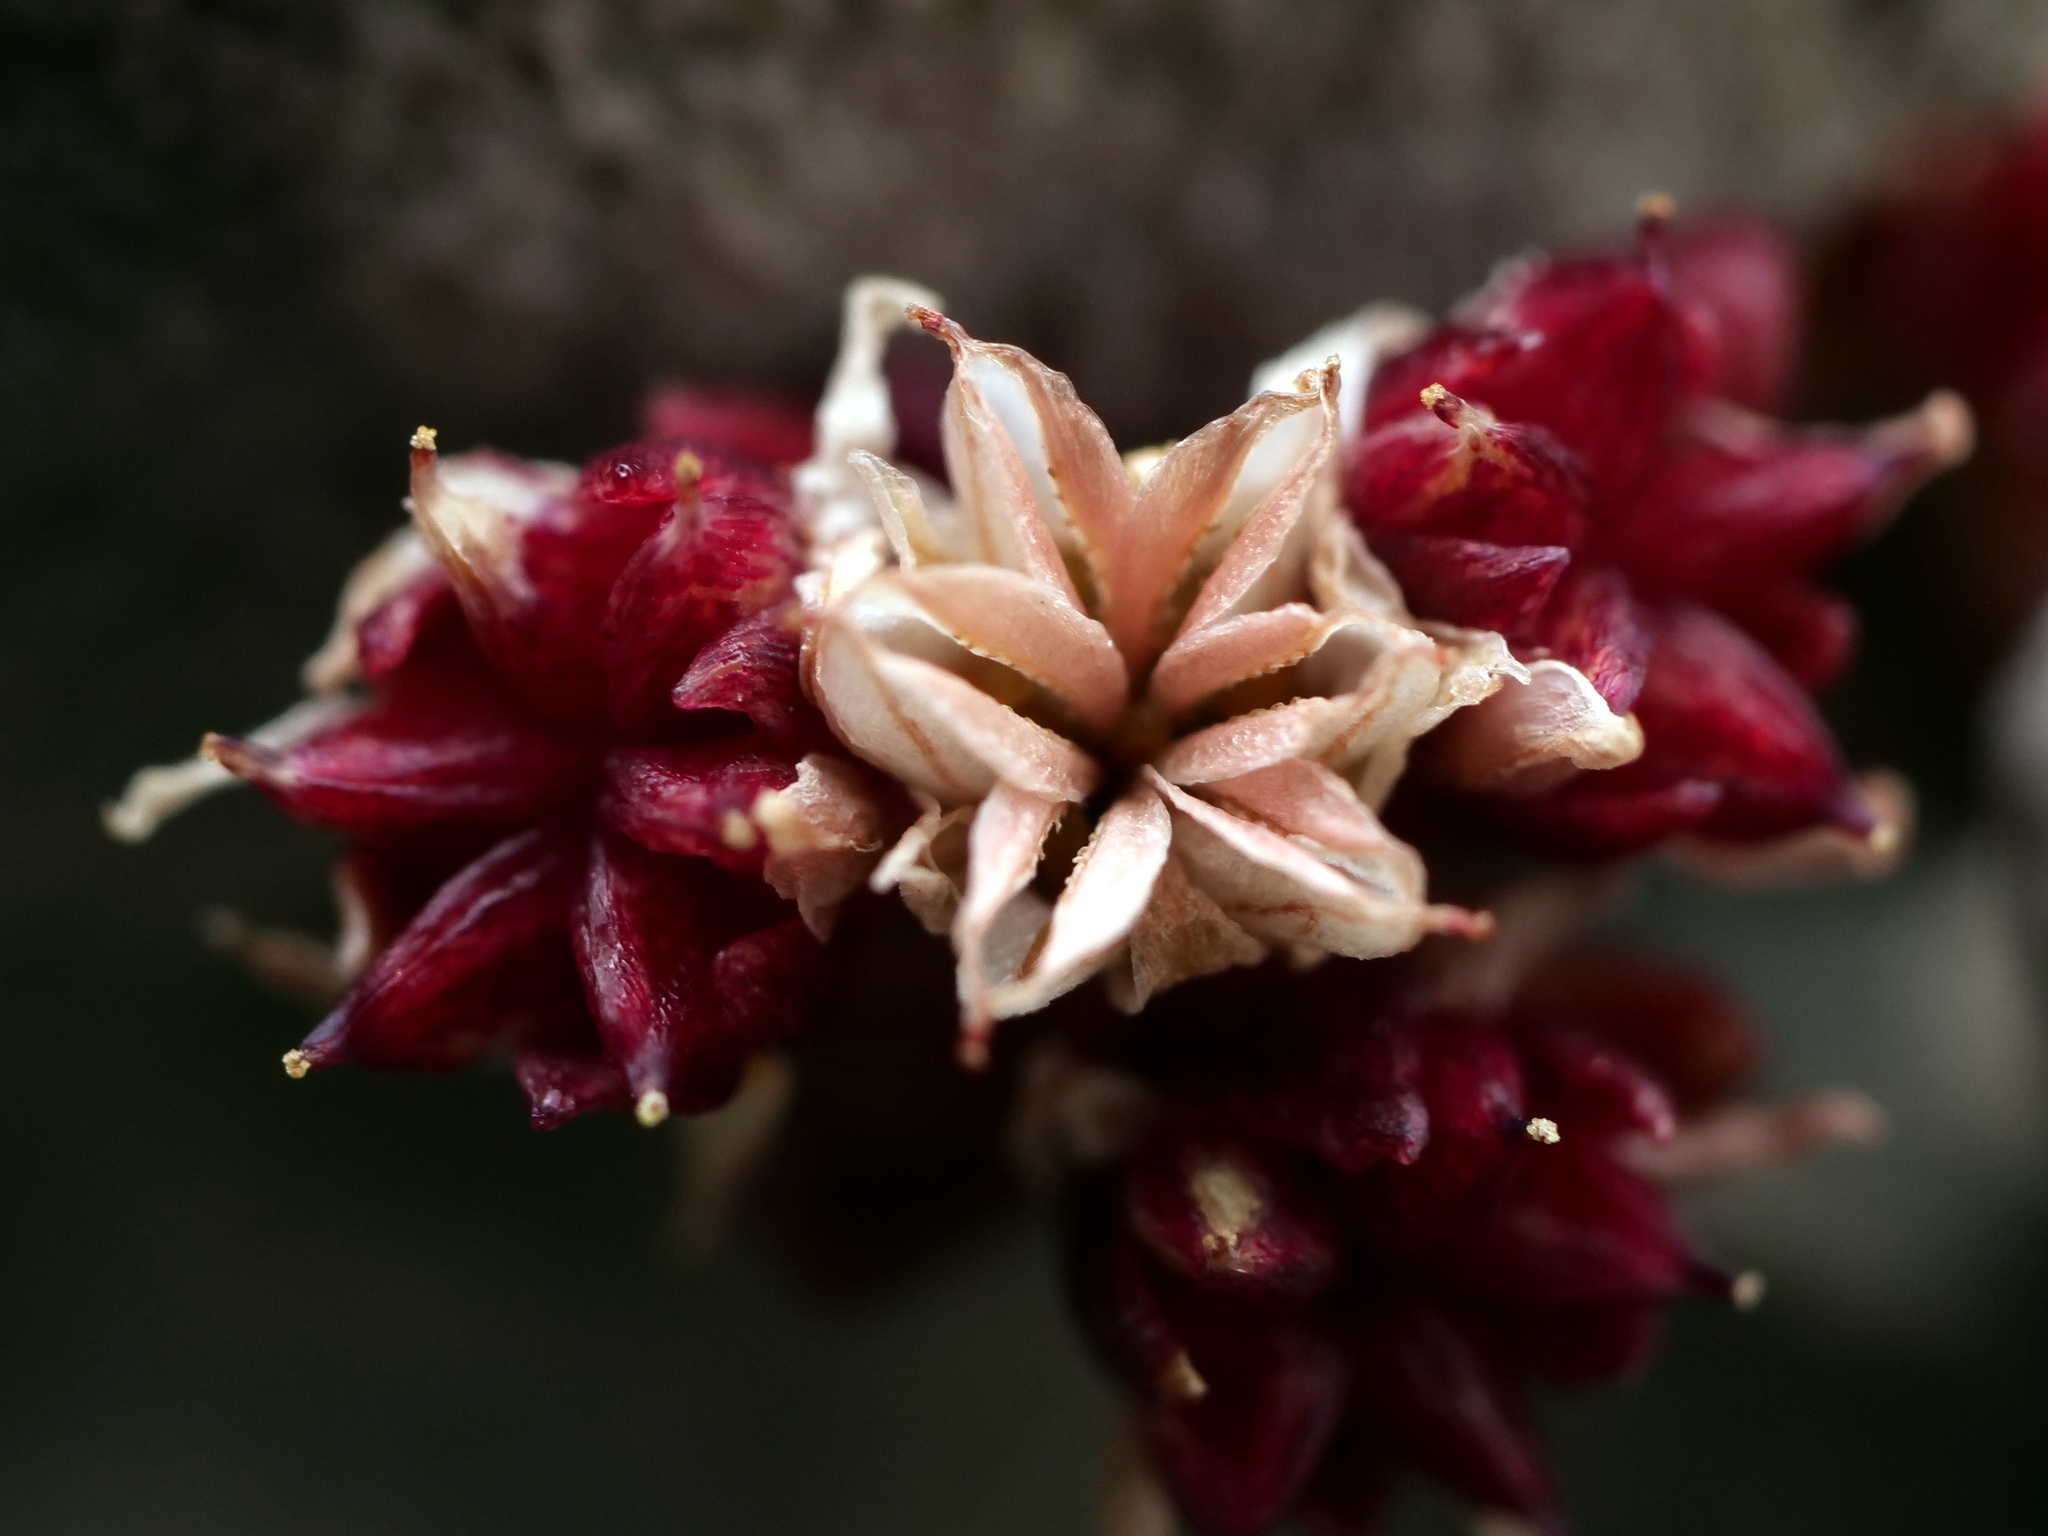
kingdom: Plantae
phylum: Tracheophyta
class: Magnoliopsida
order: Saxifragales
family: Crassulaceae
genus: Sedum
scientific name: Sedum atratum
